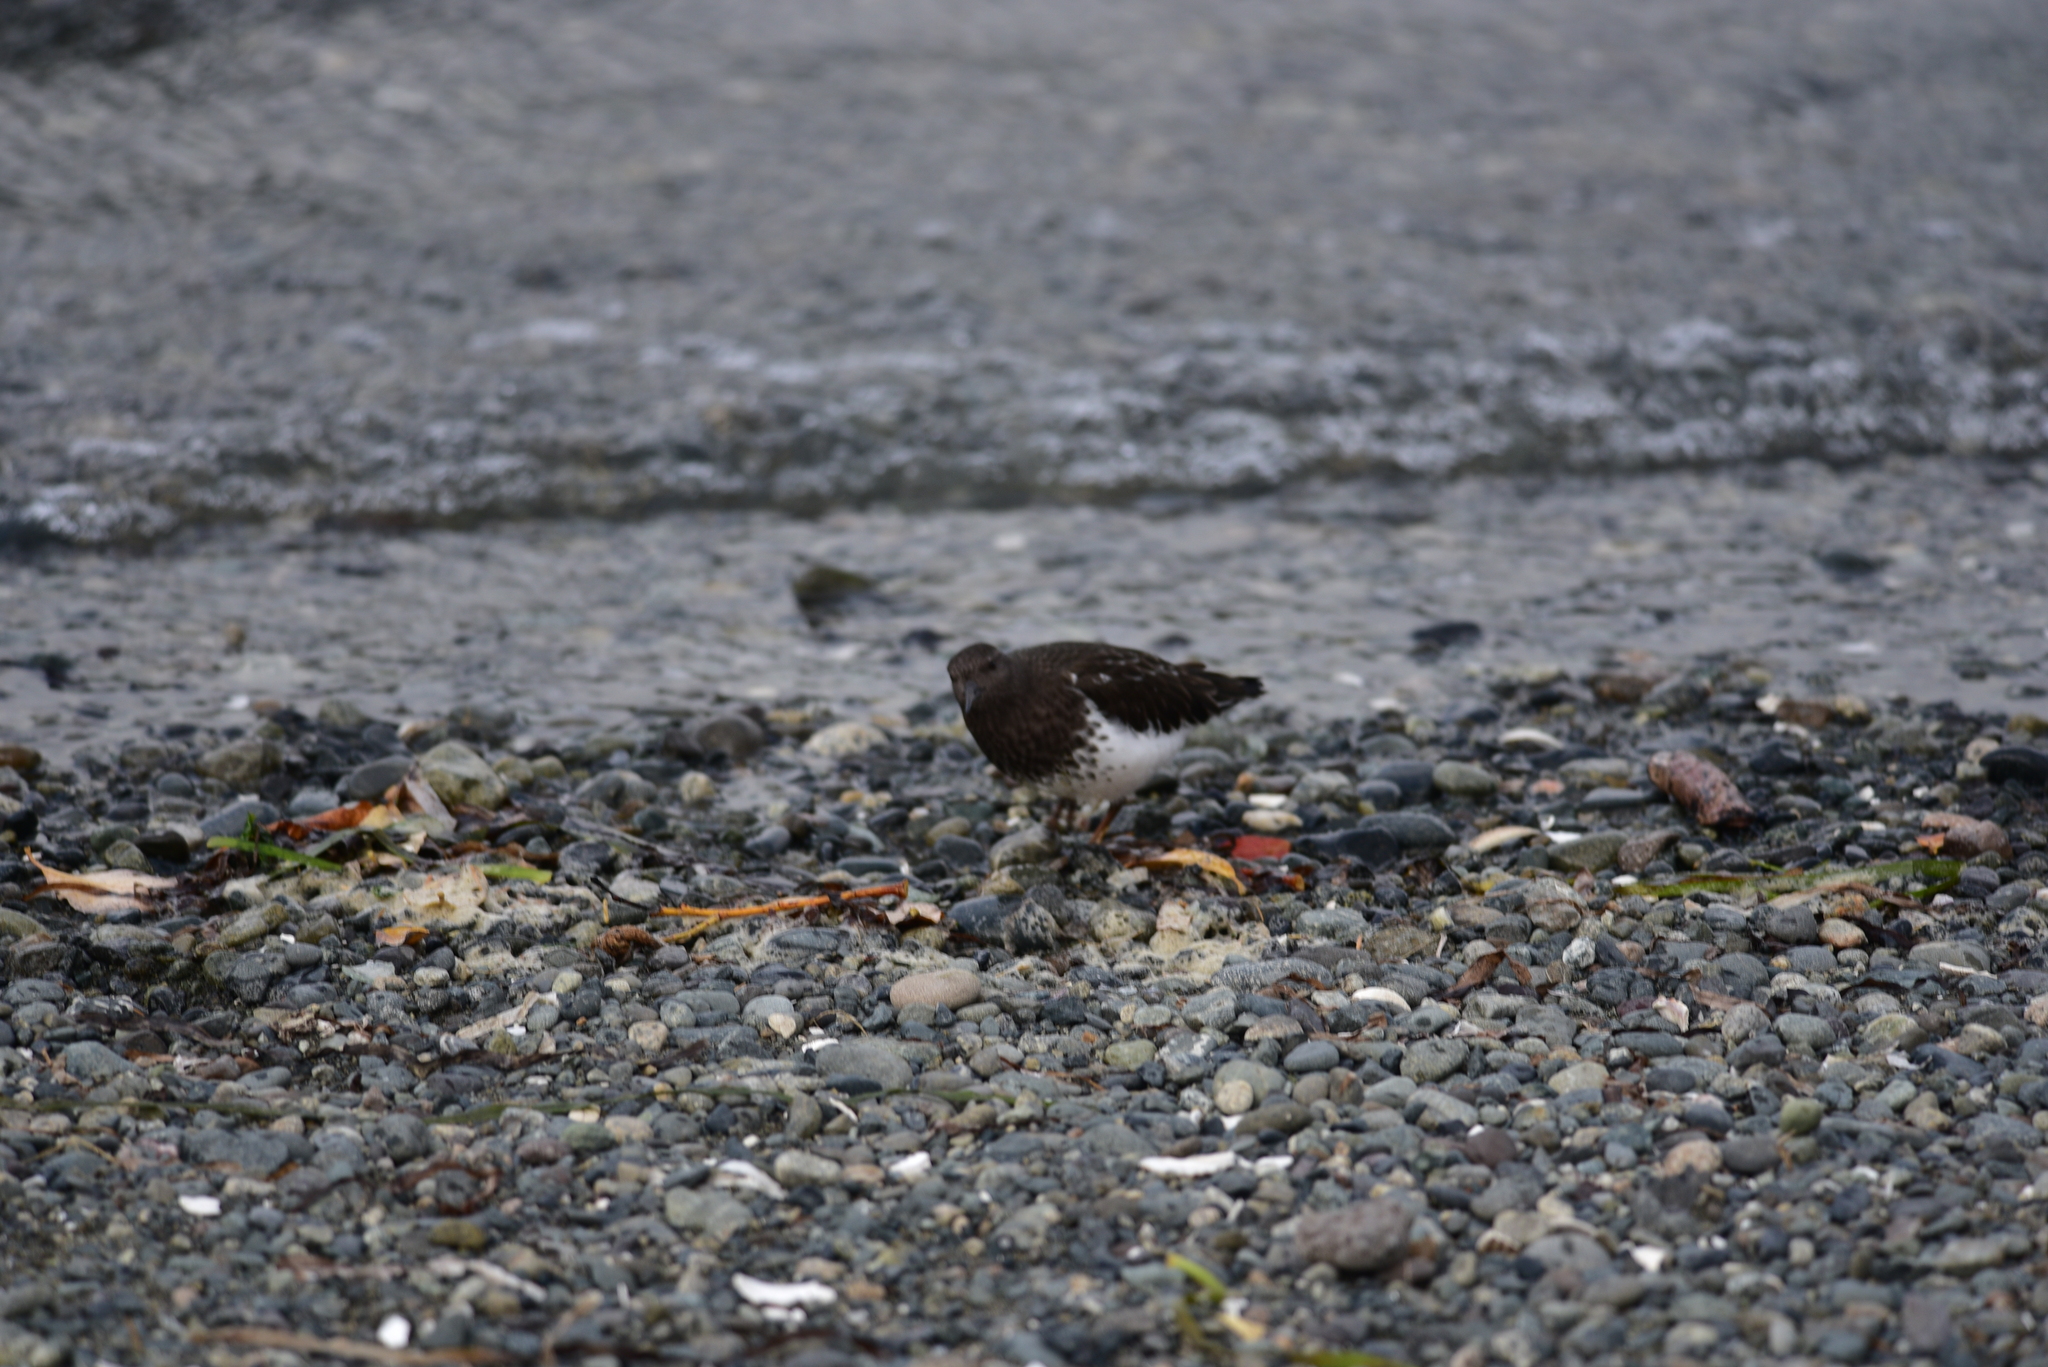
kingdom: Animalia
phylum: Chordata
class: Aves
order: Charadriiformes
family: Scolopacidae
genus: Arenaria
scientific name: Arenaria melanocephala
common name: Black turnstone
